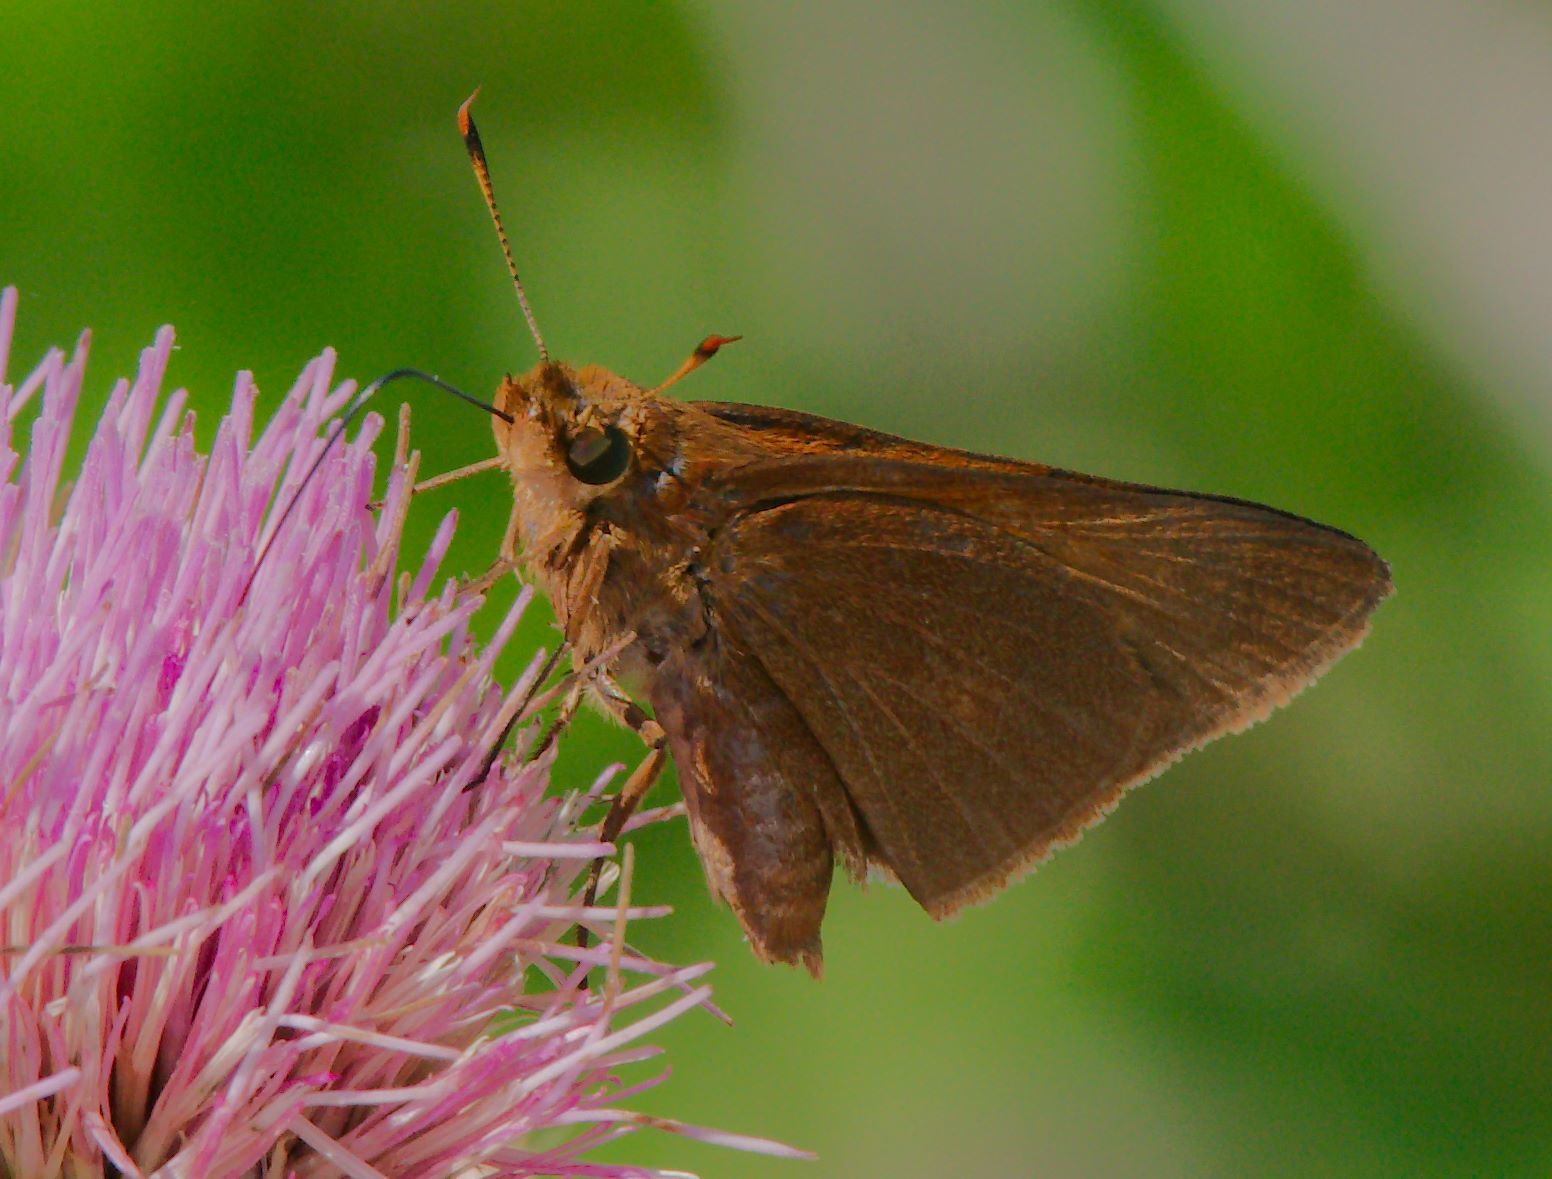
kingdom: Animalia
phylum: Arthropoda
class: Insecta
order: Lepidoptera
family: Hesperiidae
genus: Euphyes
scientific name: Euphyes pilatka
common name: Palatka skipper
